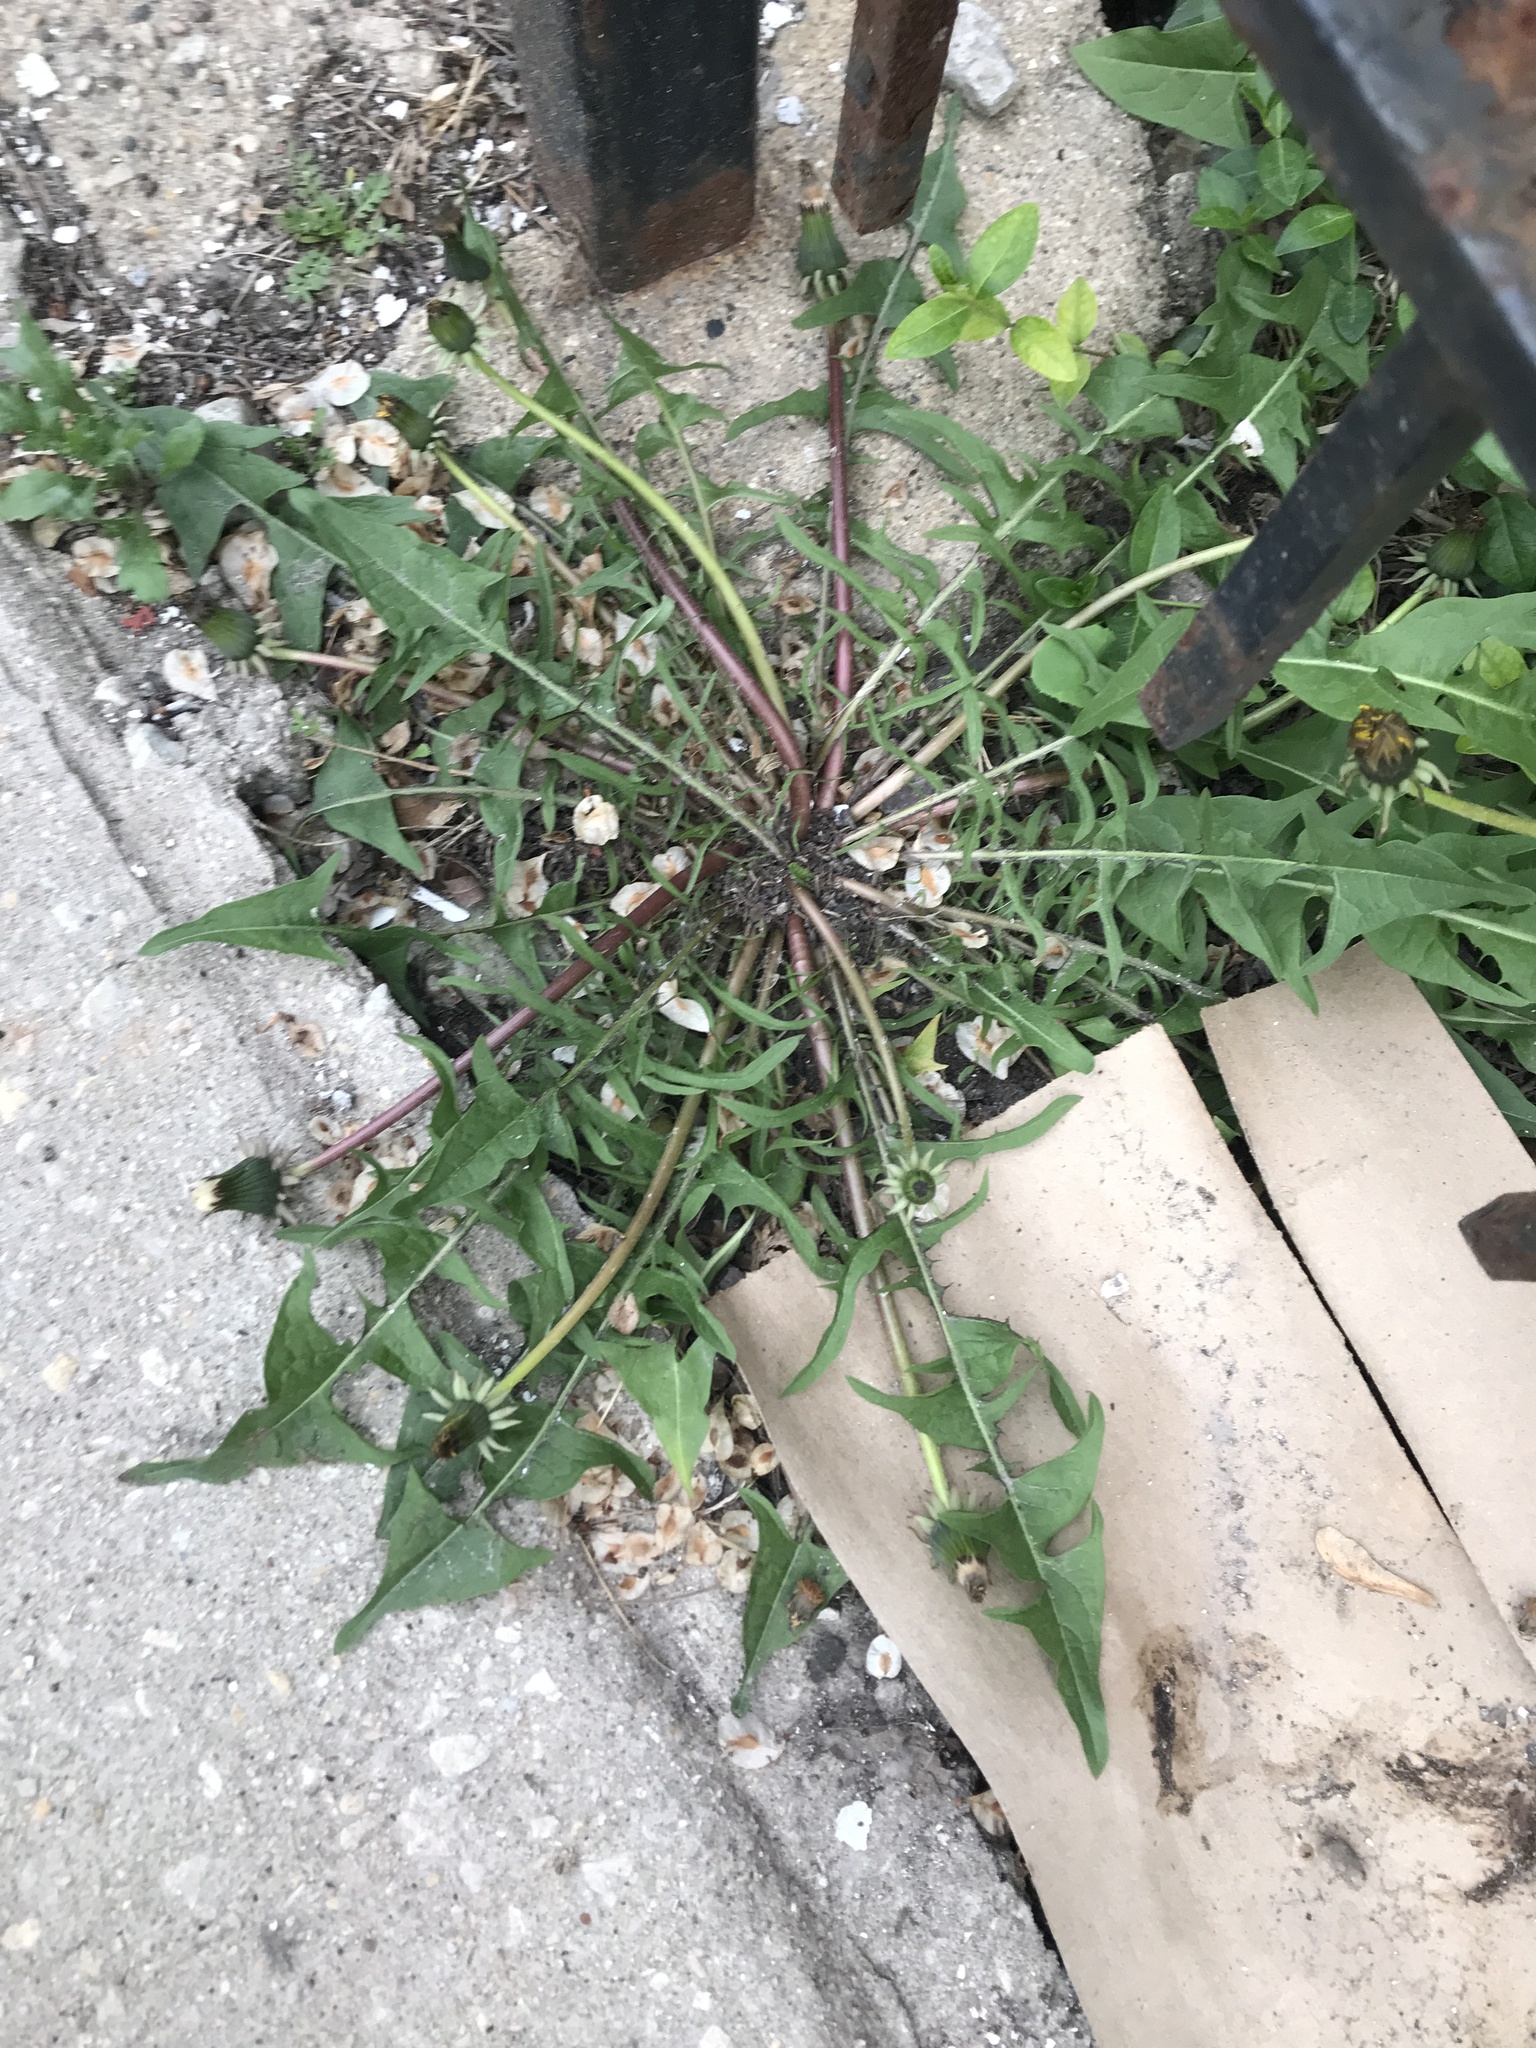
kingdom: Plantae
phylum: Tracheophyta
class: Magnoliopsida
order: Asterales
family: Asteraceae
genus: Taraxacum
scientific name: Taraxacum officinale
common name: Common dandelion
